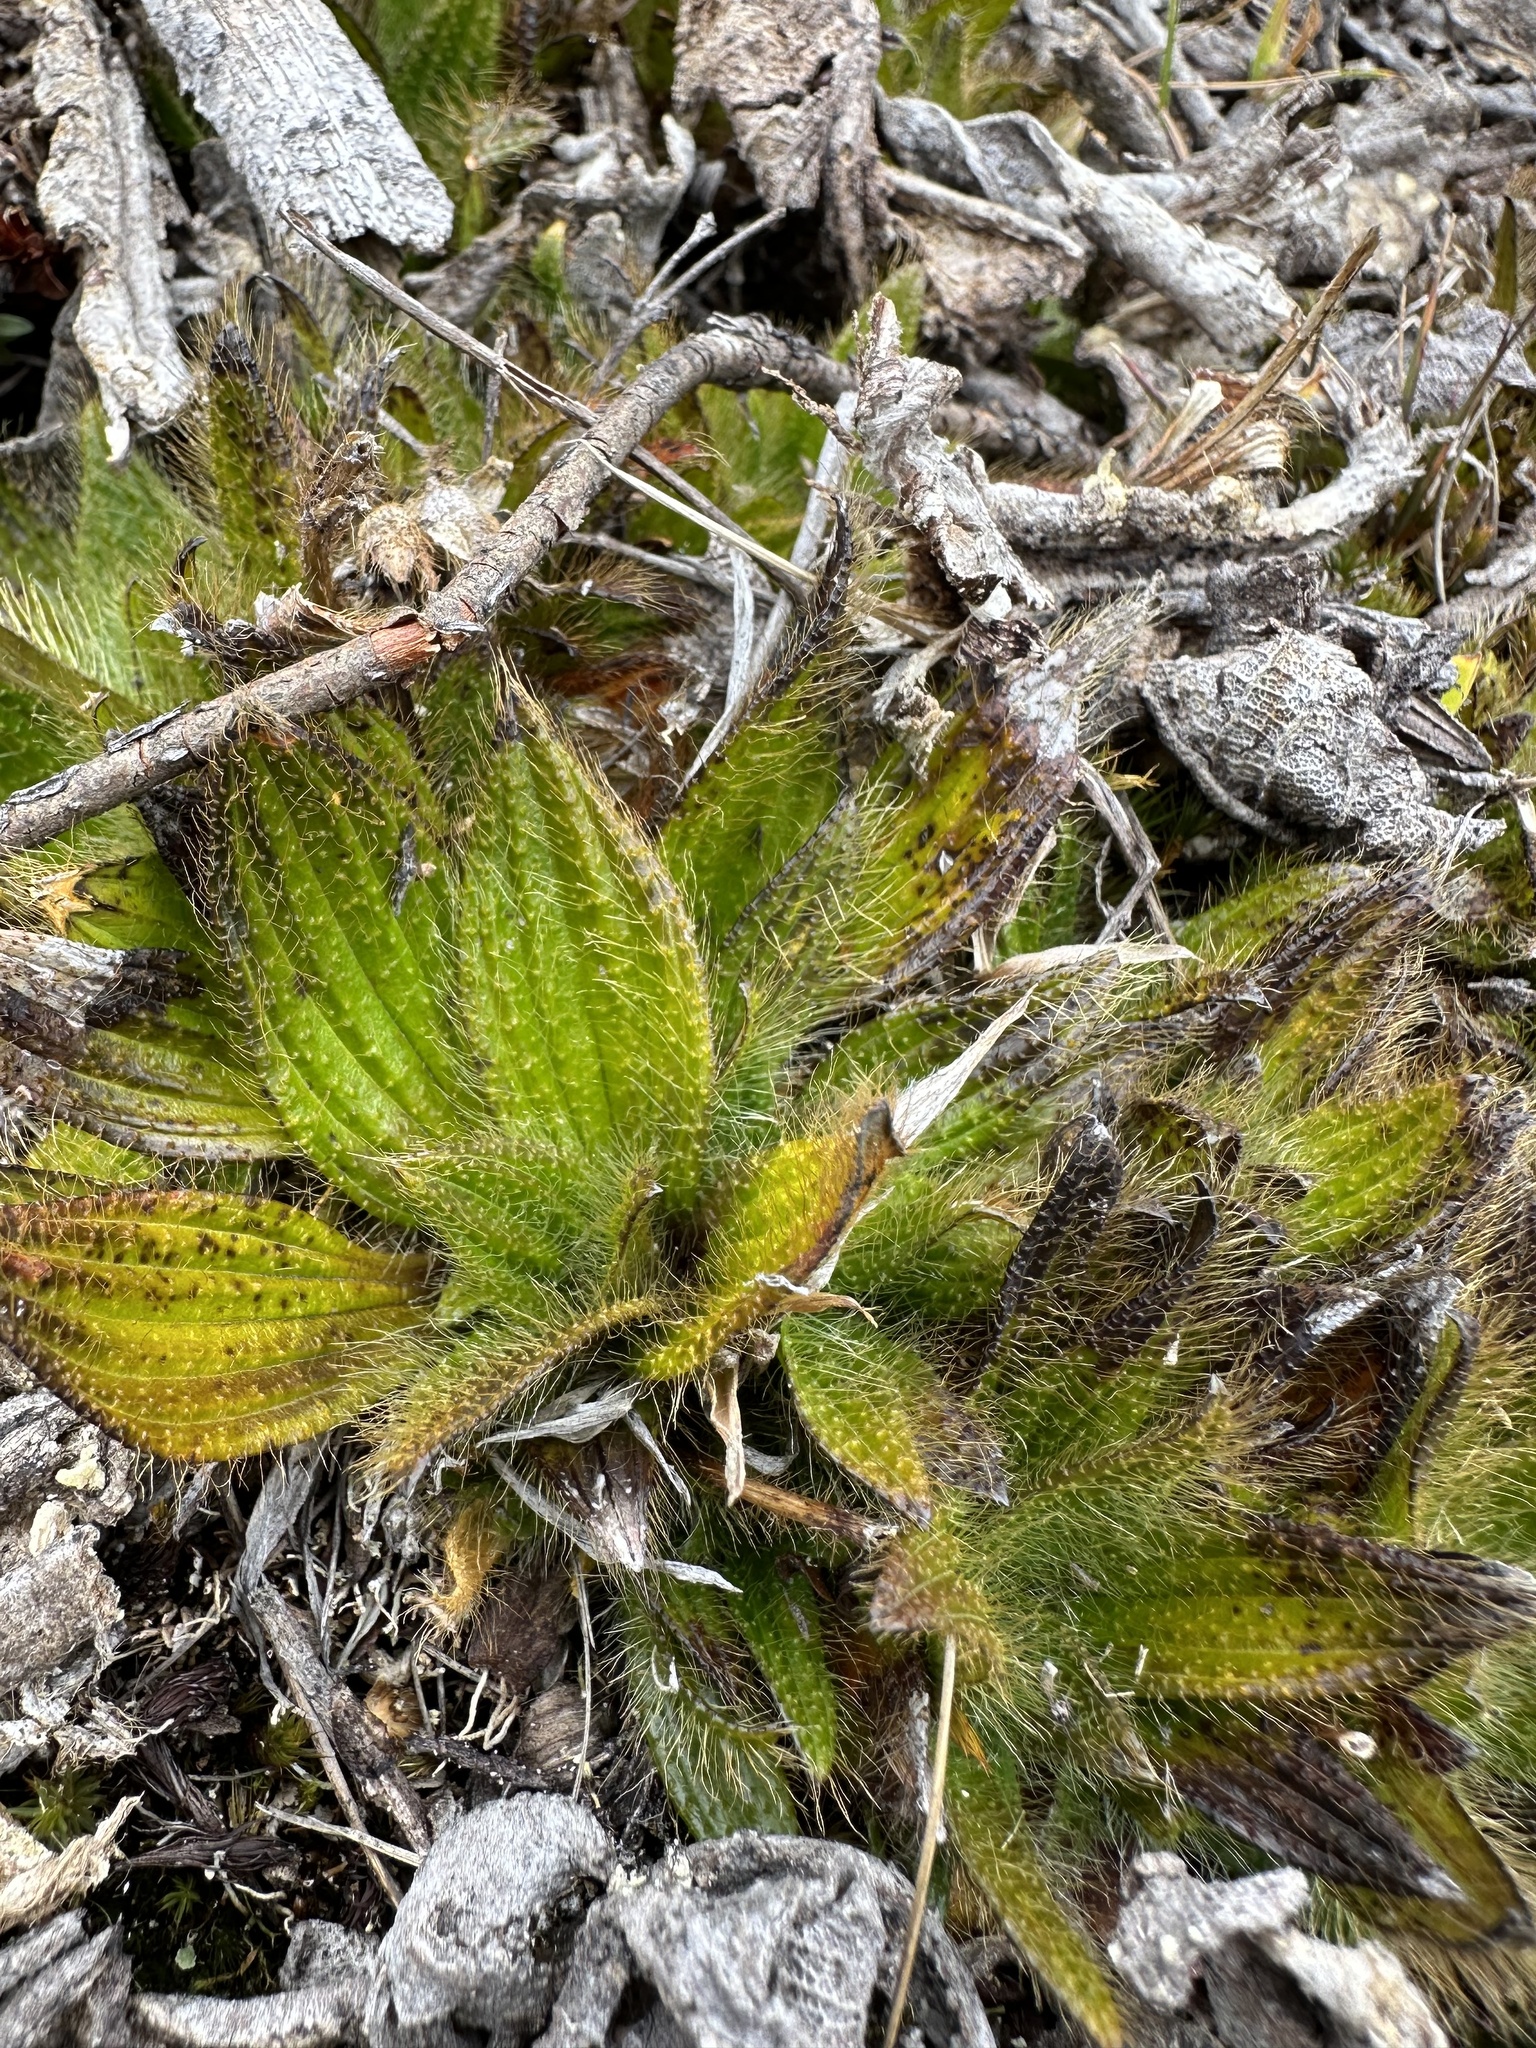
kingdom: Plantae
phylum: Tracheophyta
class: Magnoliopsida
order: Myrtales
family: Melastomataceae
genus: Castratella
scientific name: Castratella piloselloides
